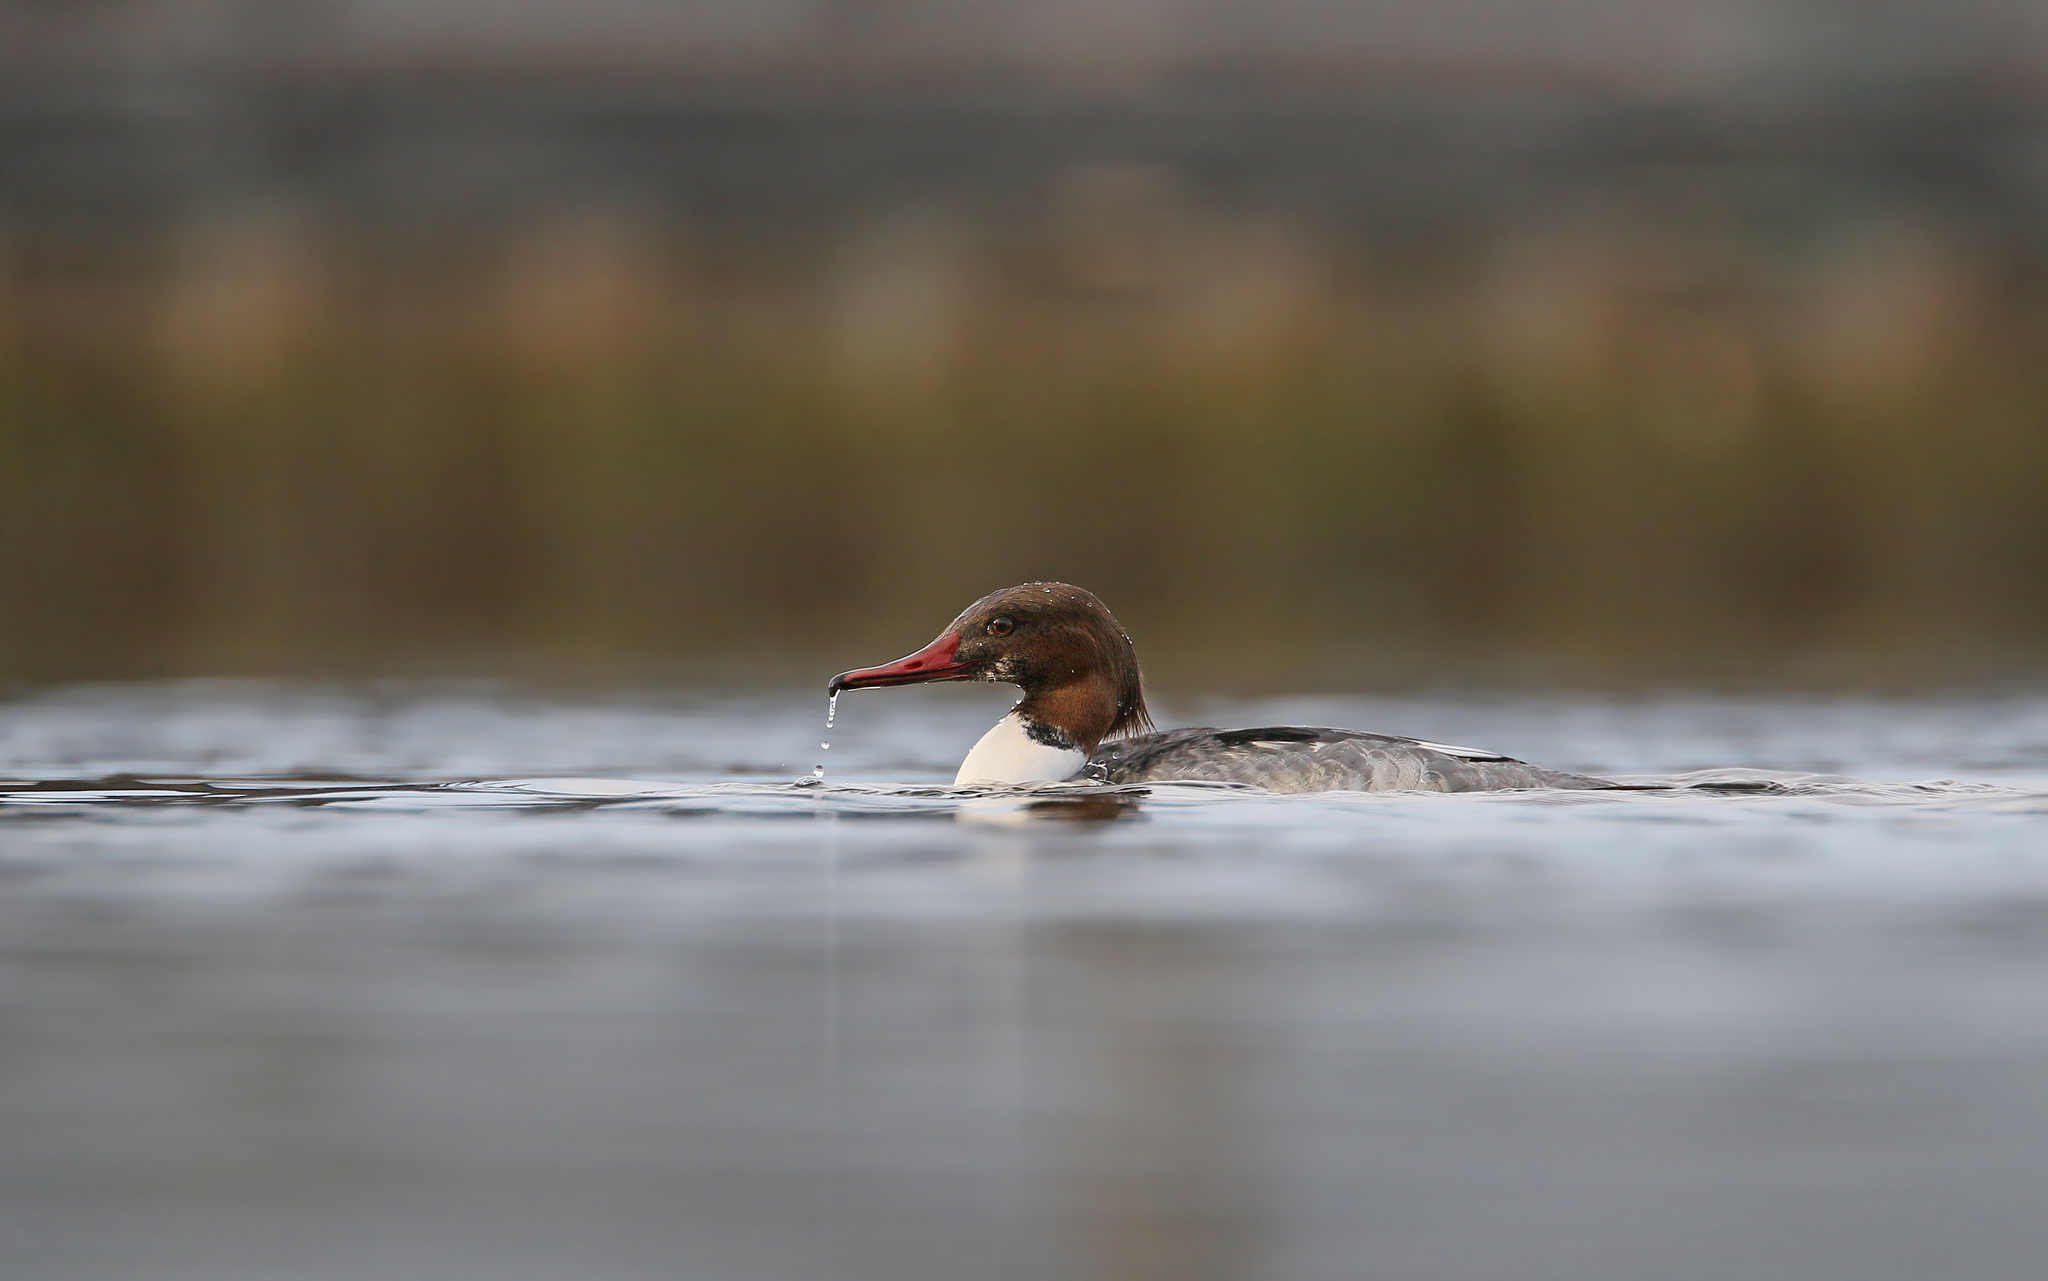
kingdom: Animalia
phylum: Chordata
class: Aves
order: Anseriformes
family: Anatidae
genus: Mergus
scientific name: Mergus merganser
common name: Common merganser
